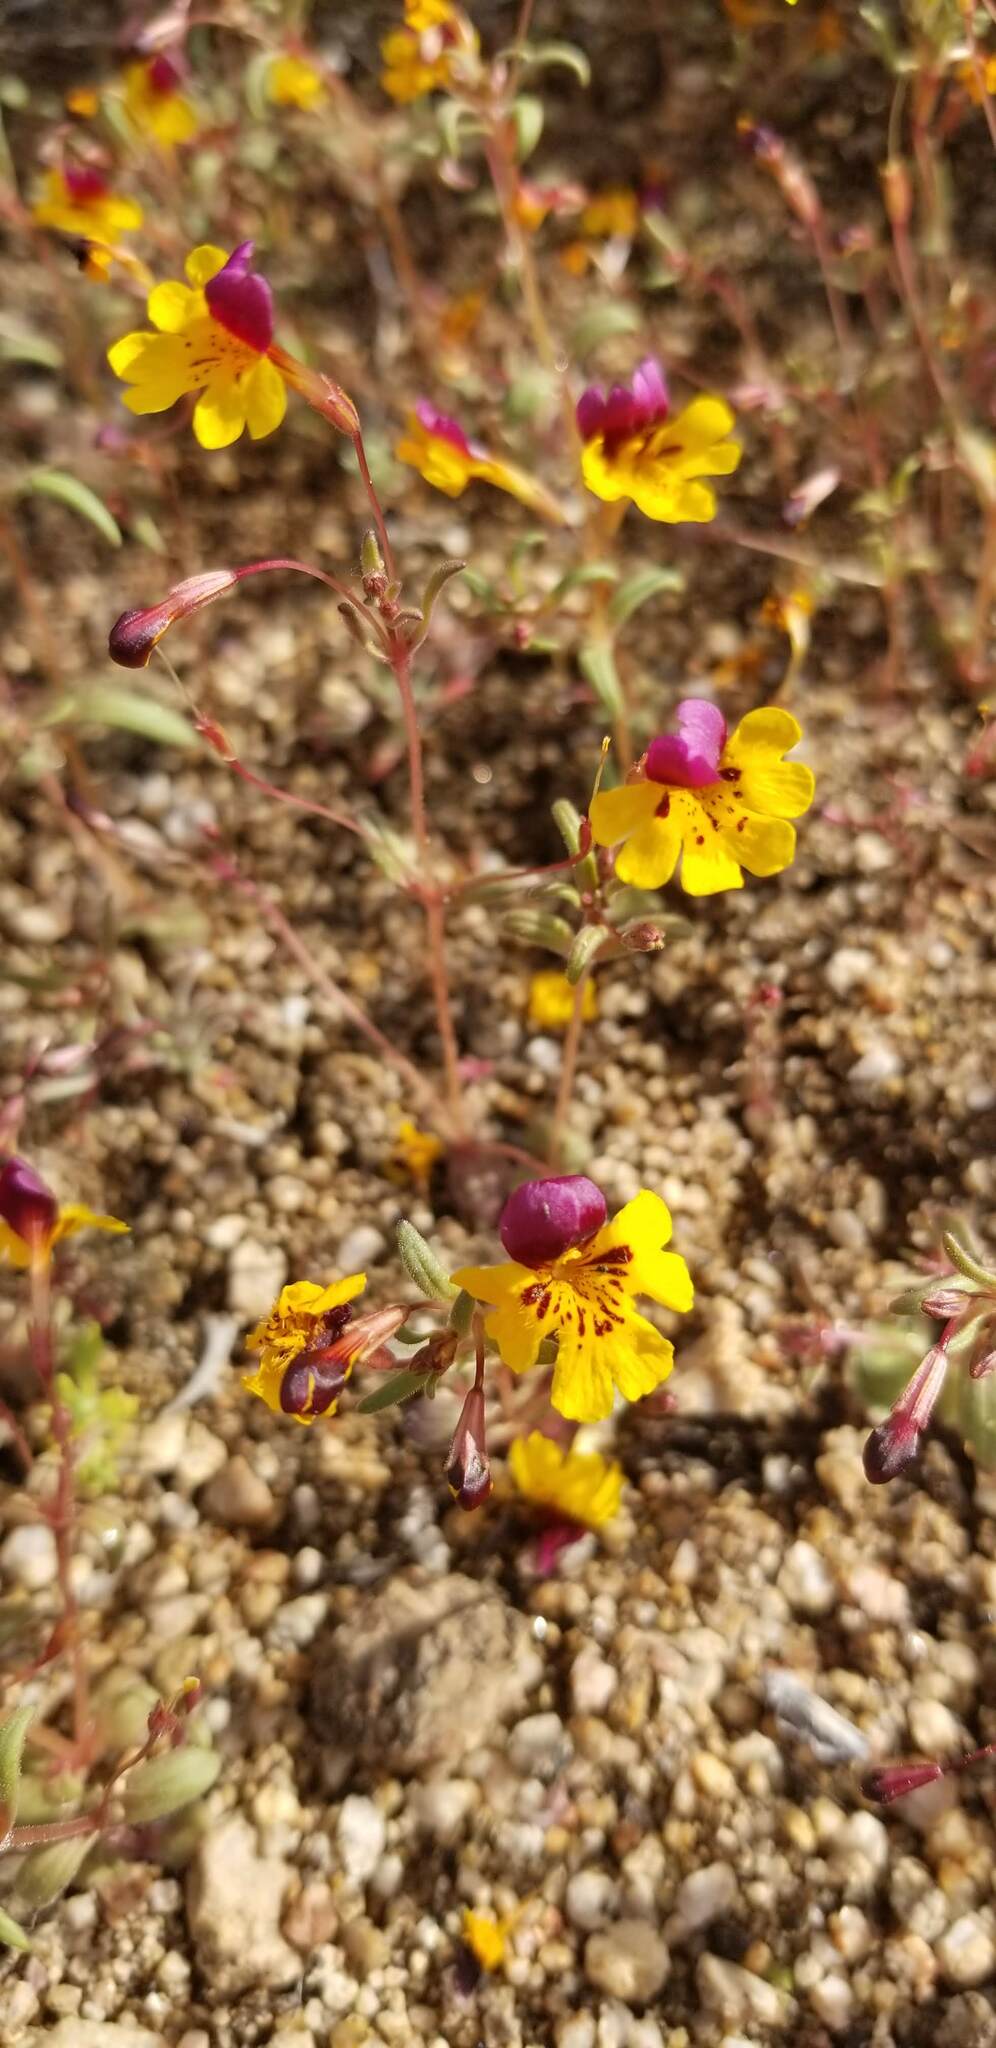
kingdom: Plantae
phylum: Tracheophyta
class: Magnoliopsida
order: Lamiales
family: Phrymaceae
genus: Erythranthe
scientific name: Erythranthe barbata
